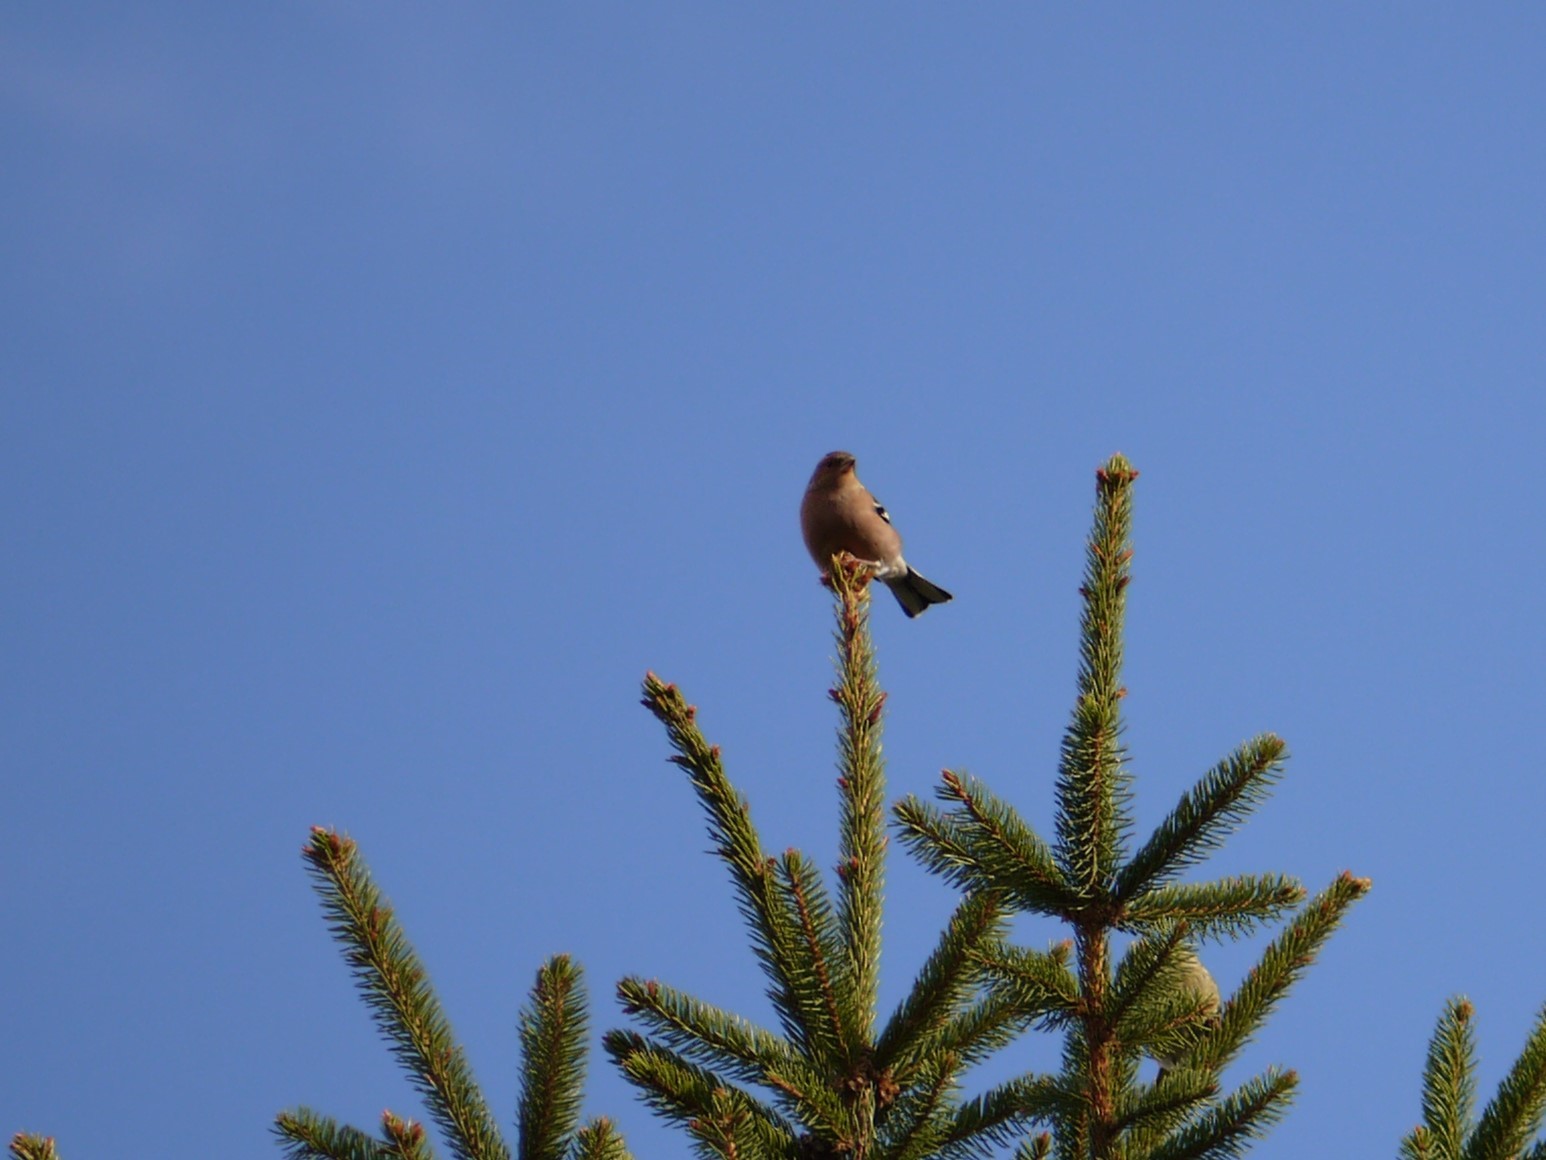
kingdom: Animalia
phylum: Chordata
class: Aves
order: Passeriformes
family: Fringillidae
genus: Fringilla
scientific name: Fringilla coelebs
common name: Common chaffinch
